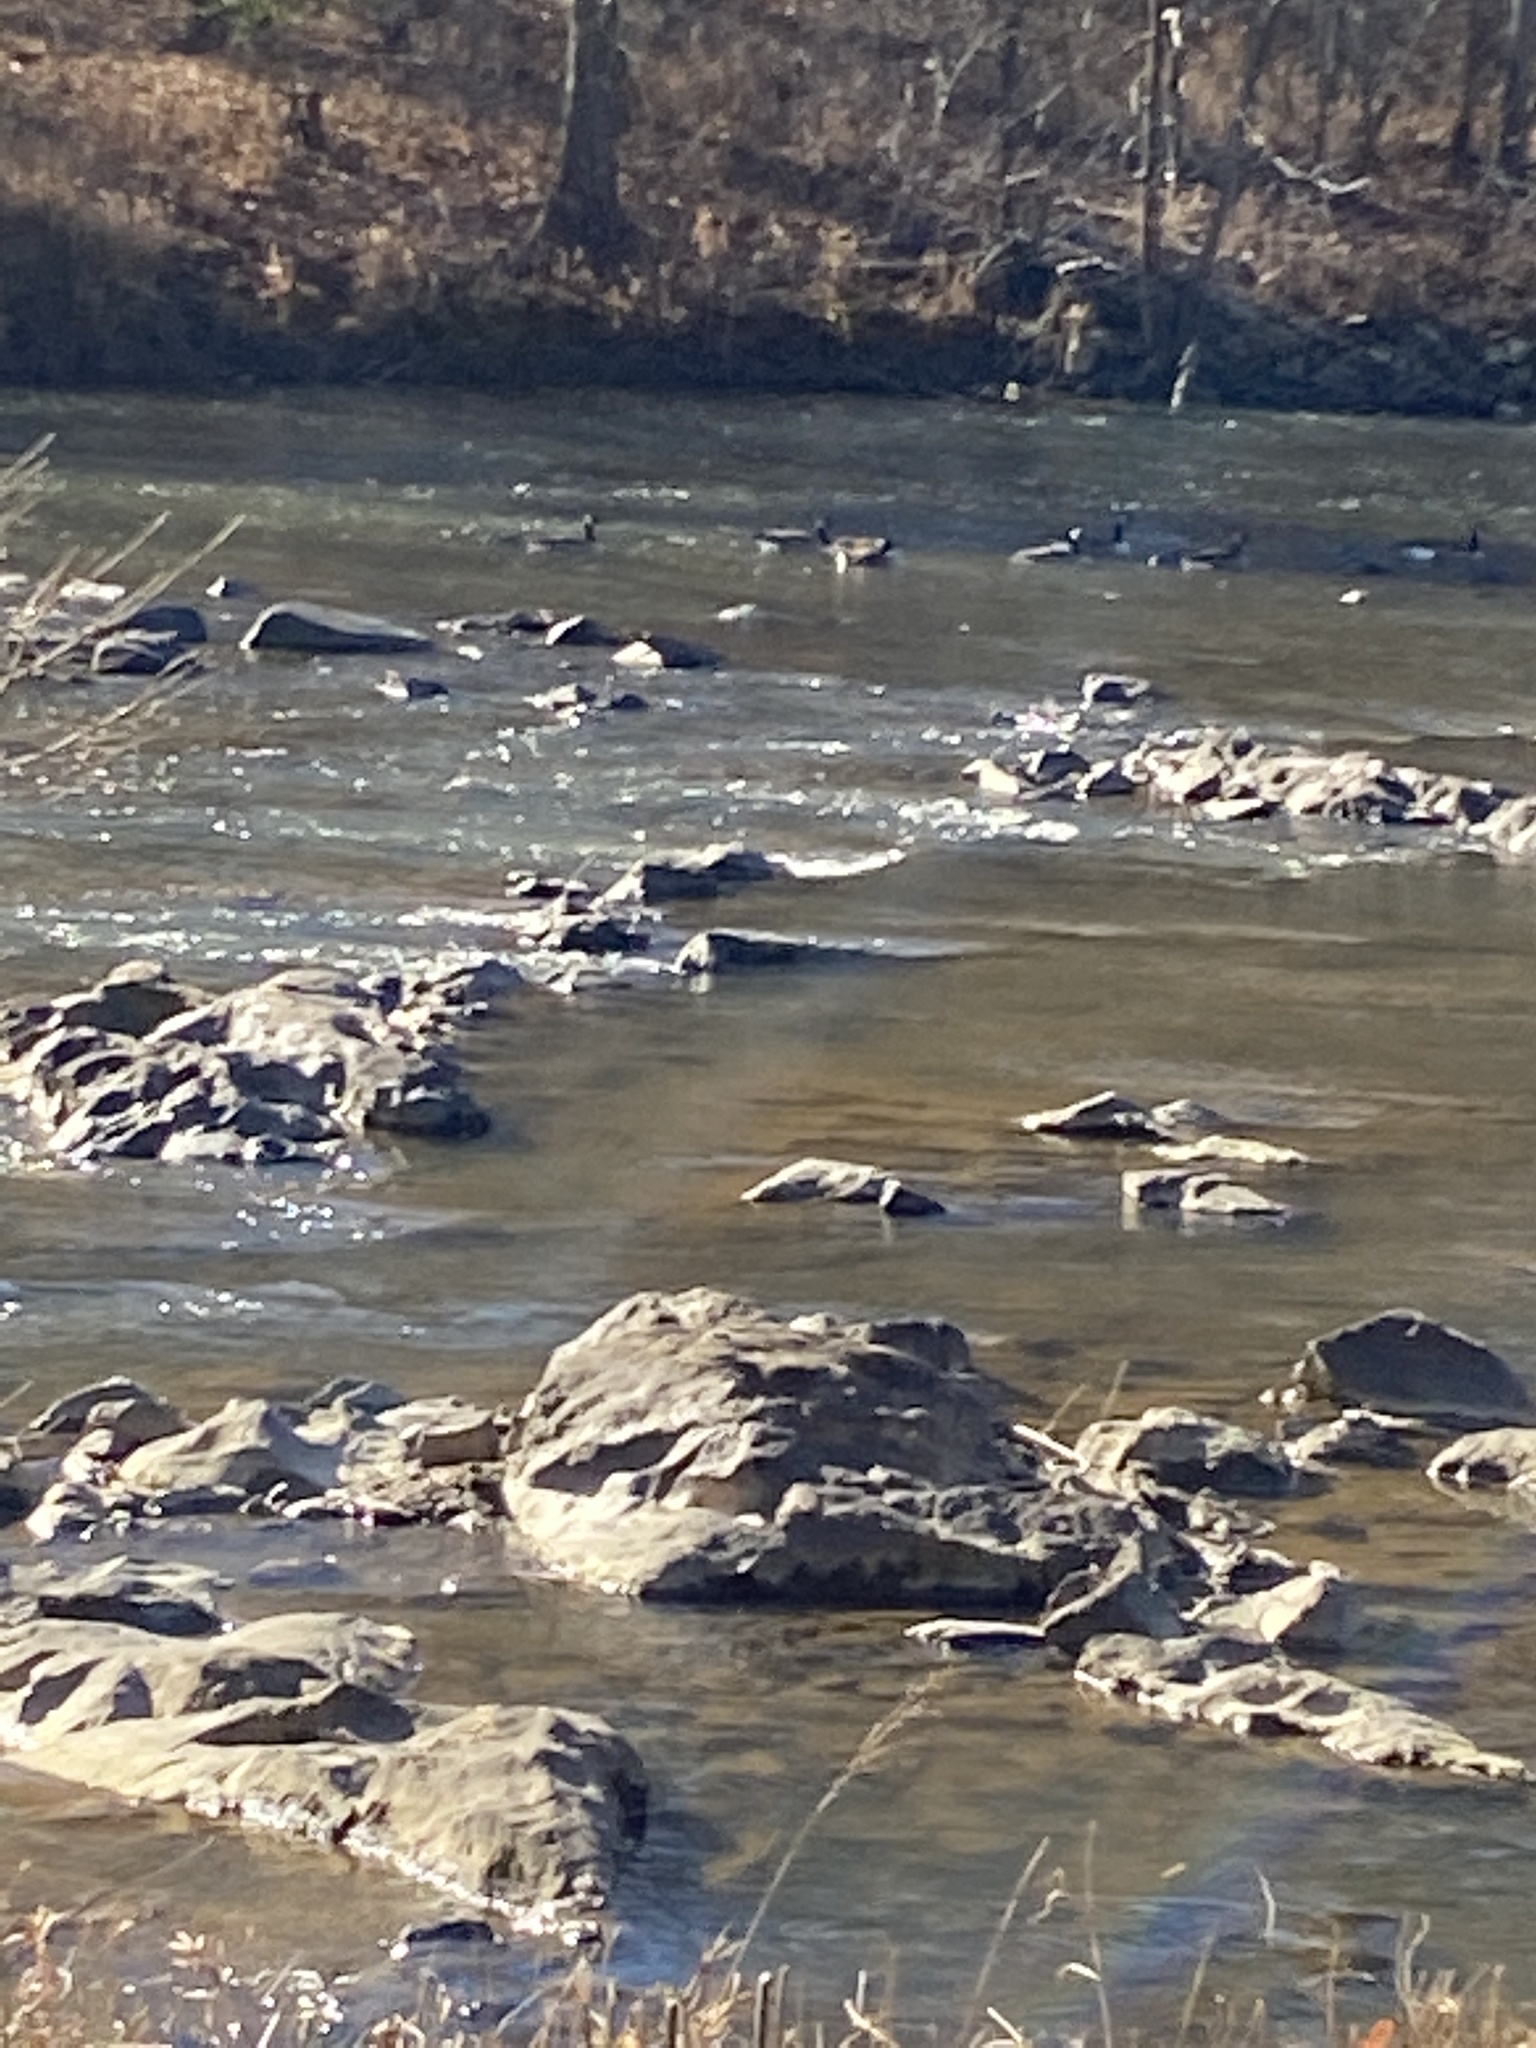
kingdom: Animalia
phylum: Chordata
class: Aves
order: Anseriformes
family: Anatidae
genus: Branta
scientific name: Branta canadensis
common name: Canada goose
